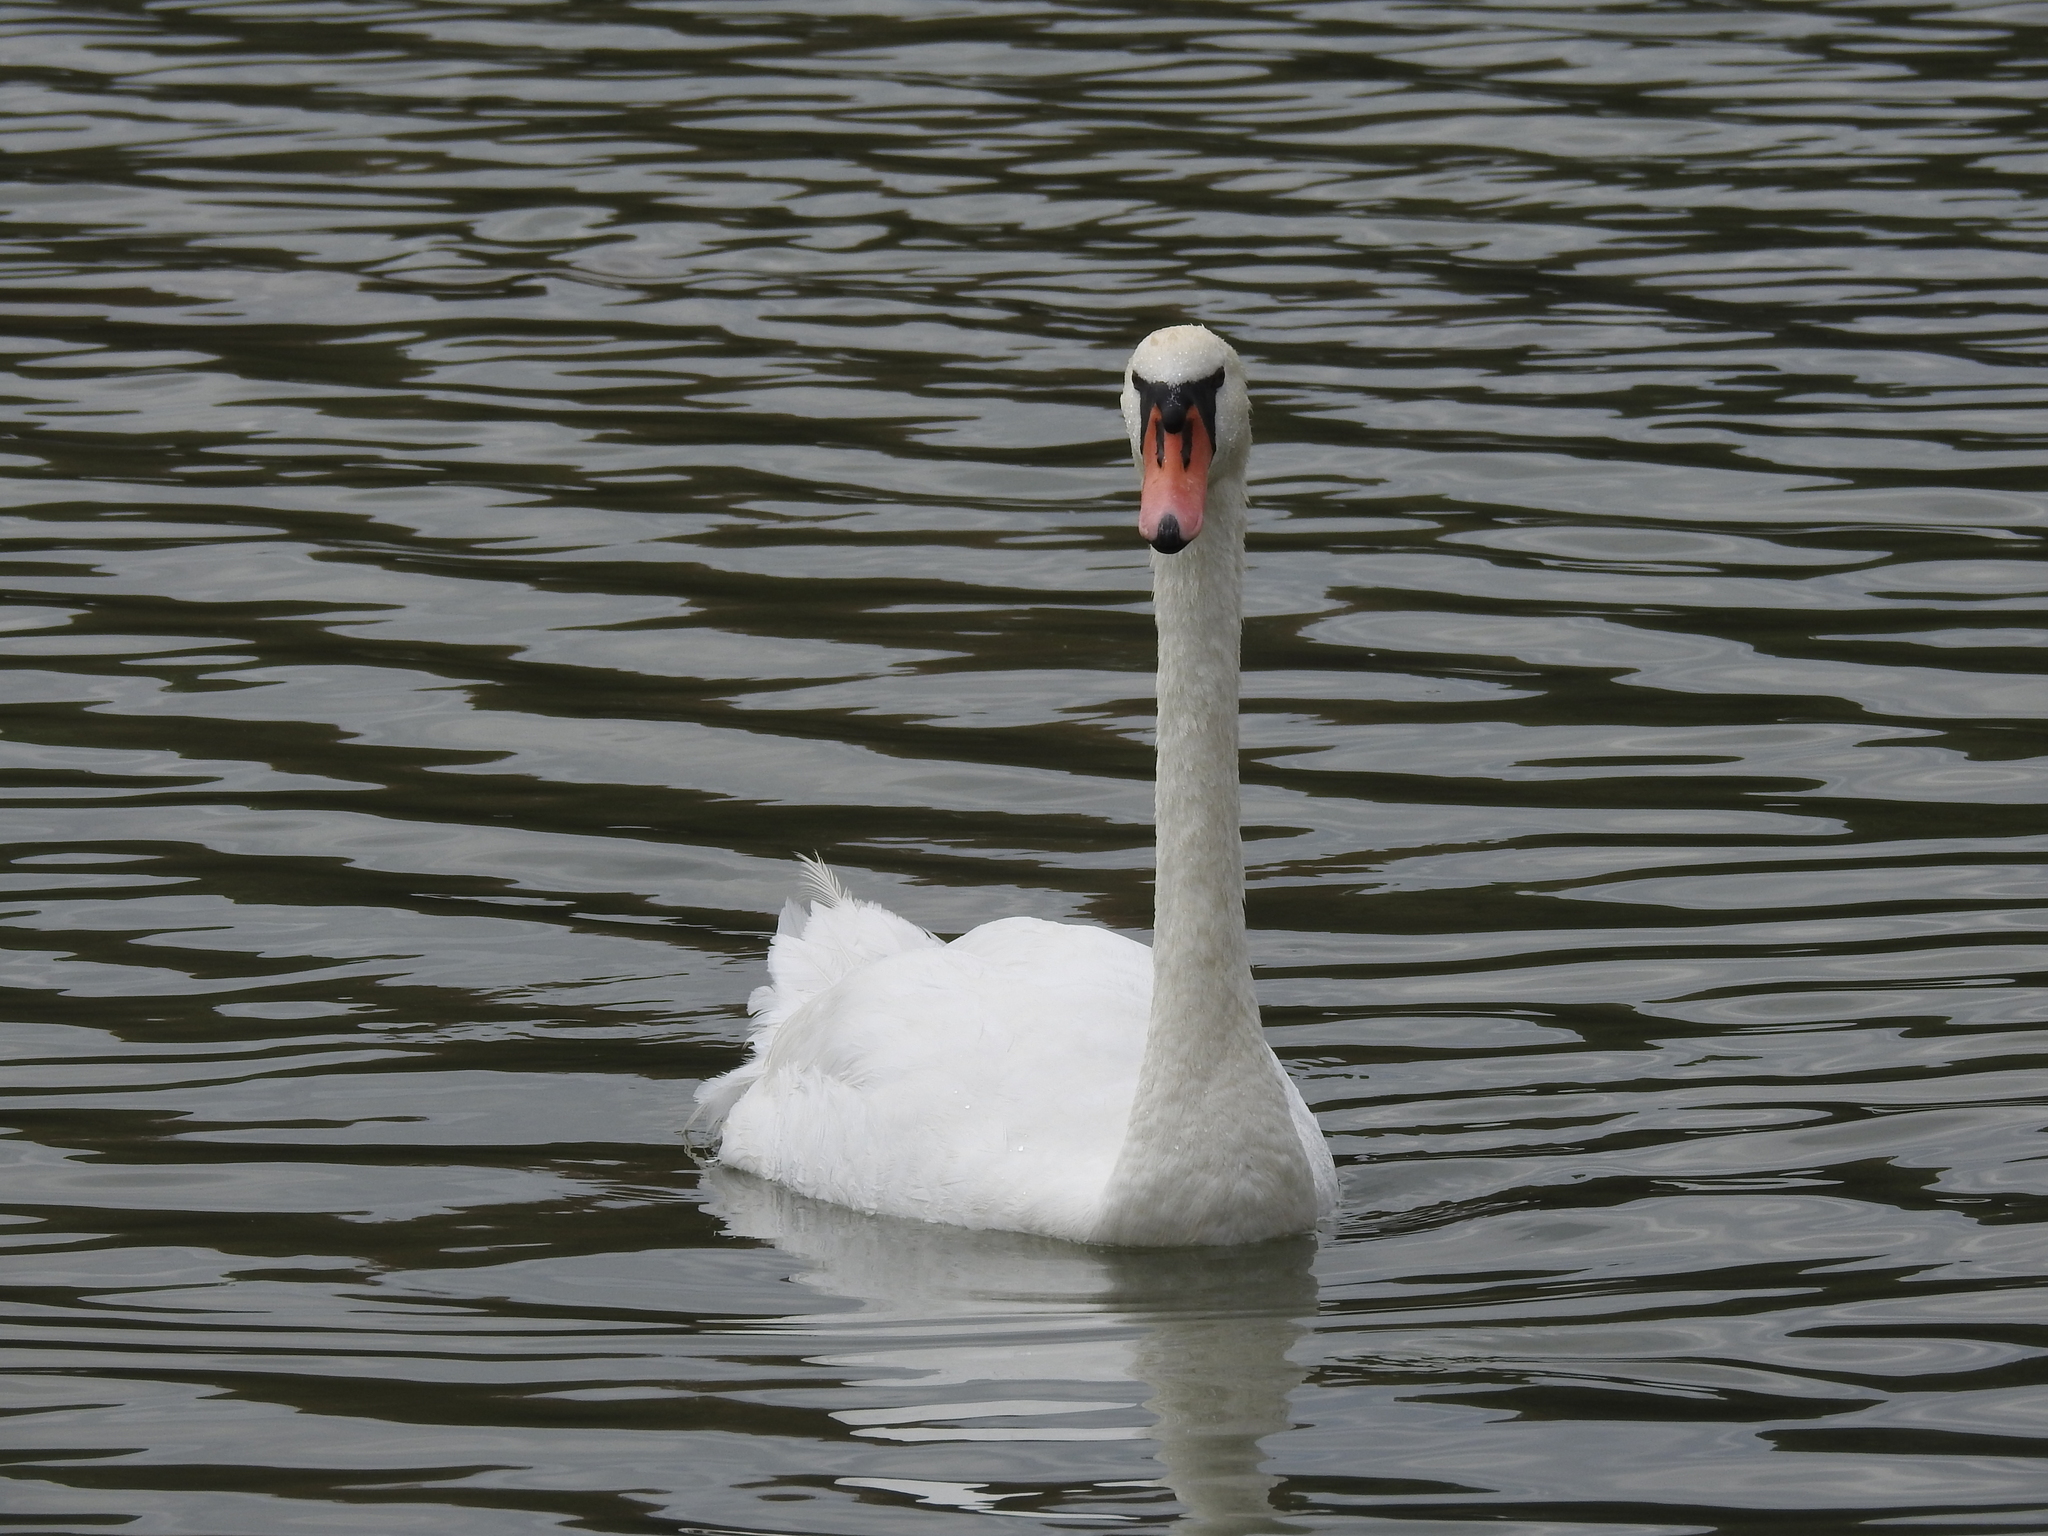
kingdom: Animalia
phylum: Chordata
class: Aves
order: Anseriformes
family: Anatidae
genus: Cygnus
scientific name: Cygnus olor
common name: Mute swan
